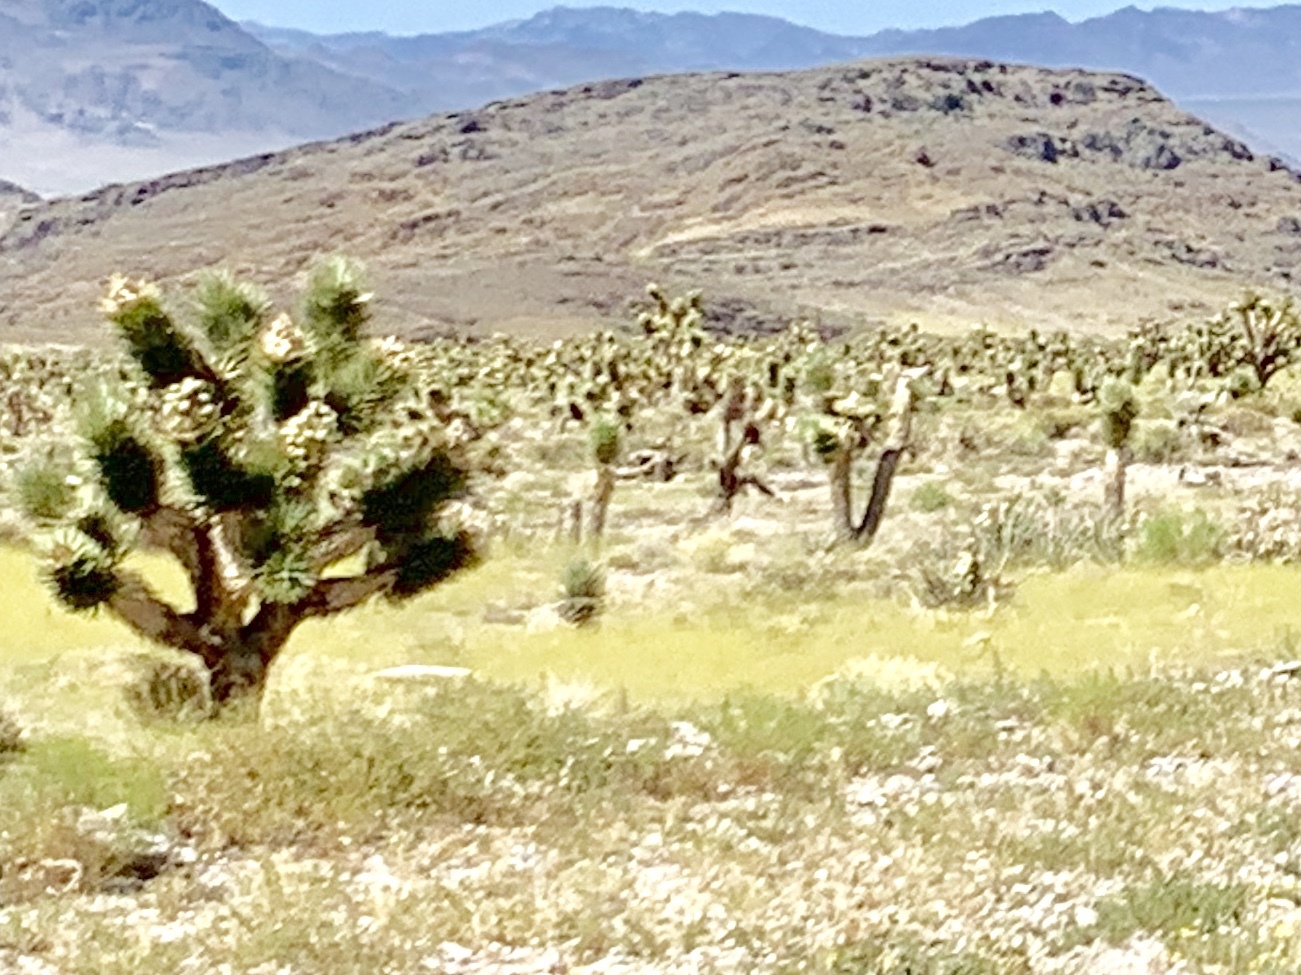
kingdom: Plantae
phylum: Tracheophyta
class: Liliopsida
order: Asparagales
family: Asparagaceae
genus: Yucca
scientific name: Yucca brevifolia
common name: Joshua tree
